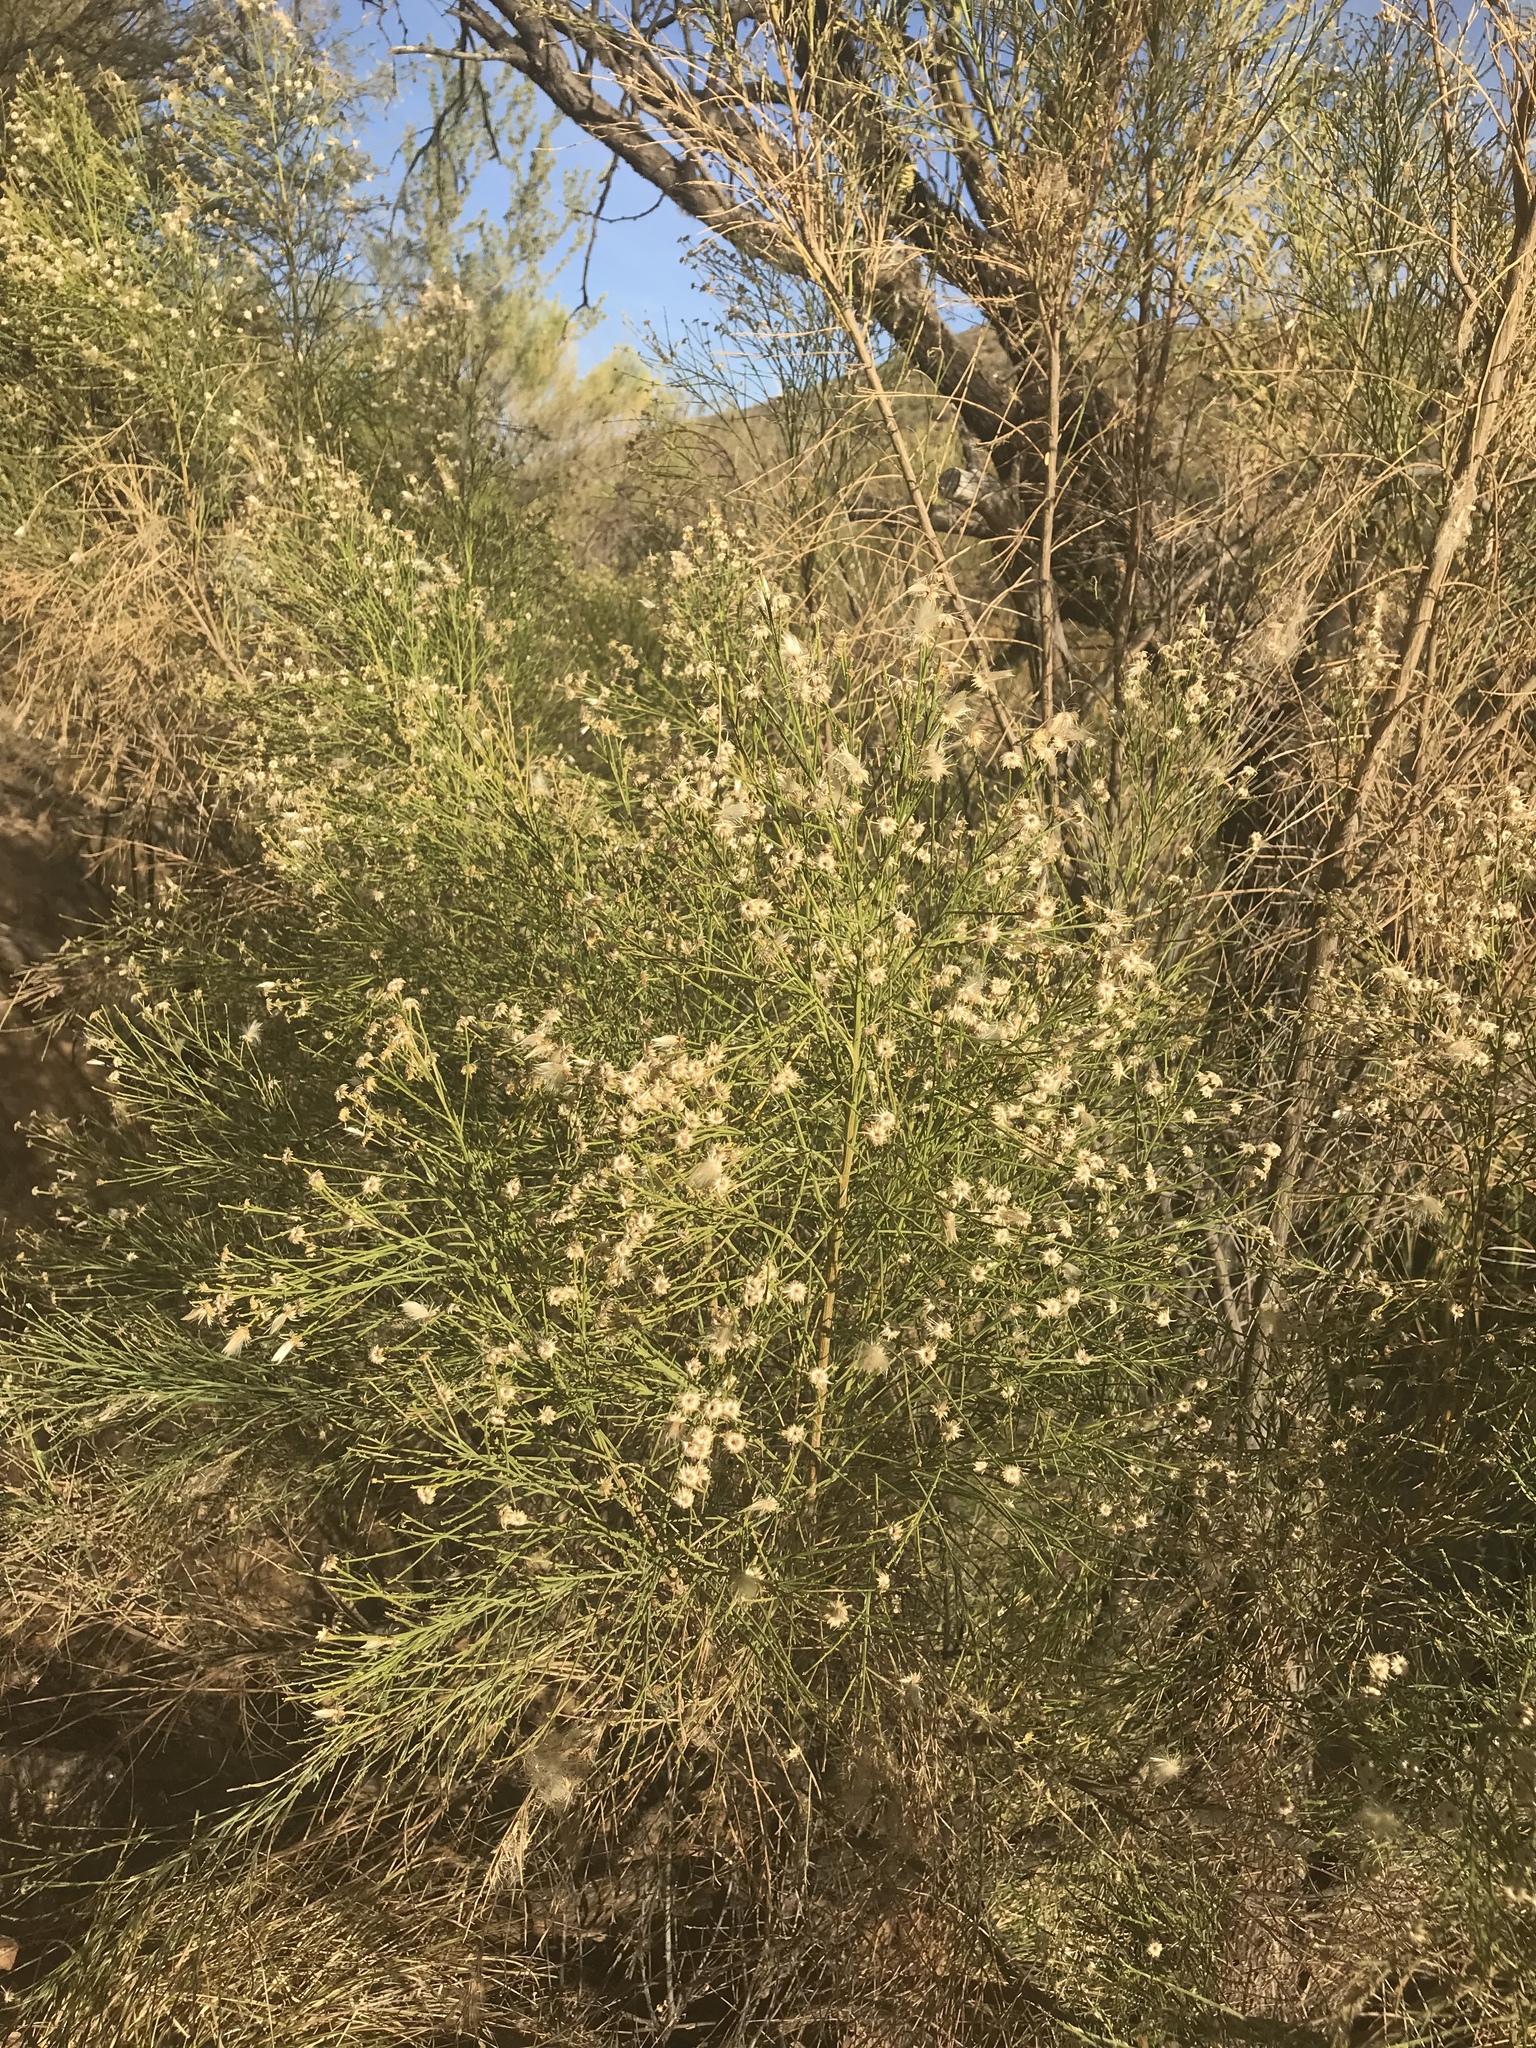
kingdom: Plantae
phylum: Tracheophyta
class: Magnoliopsida
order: Asterales
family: Asteraceae
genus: Baccharis
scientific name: Baccharis sarothroides
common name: Desert-broom
